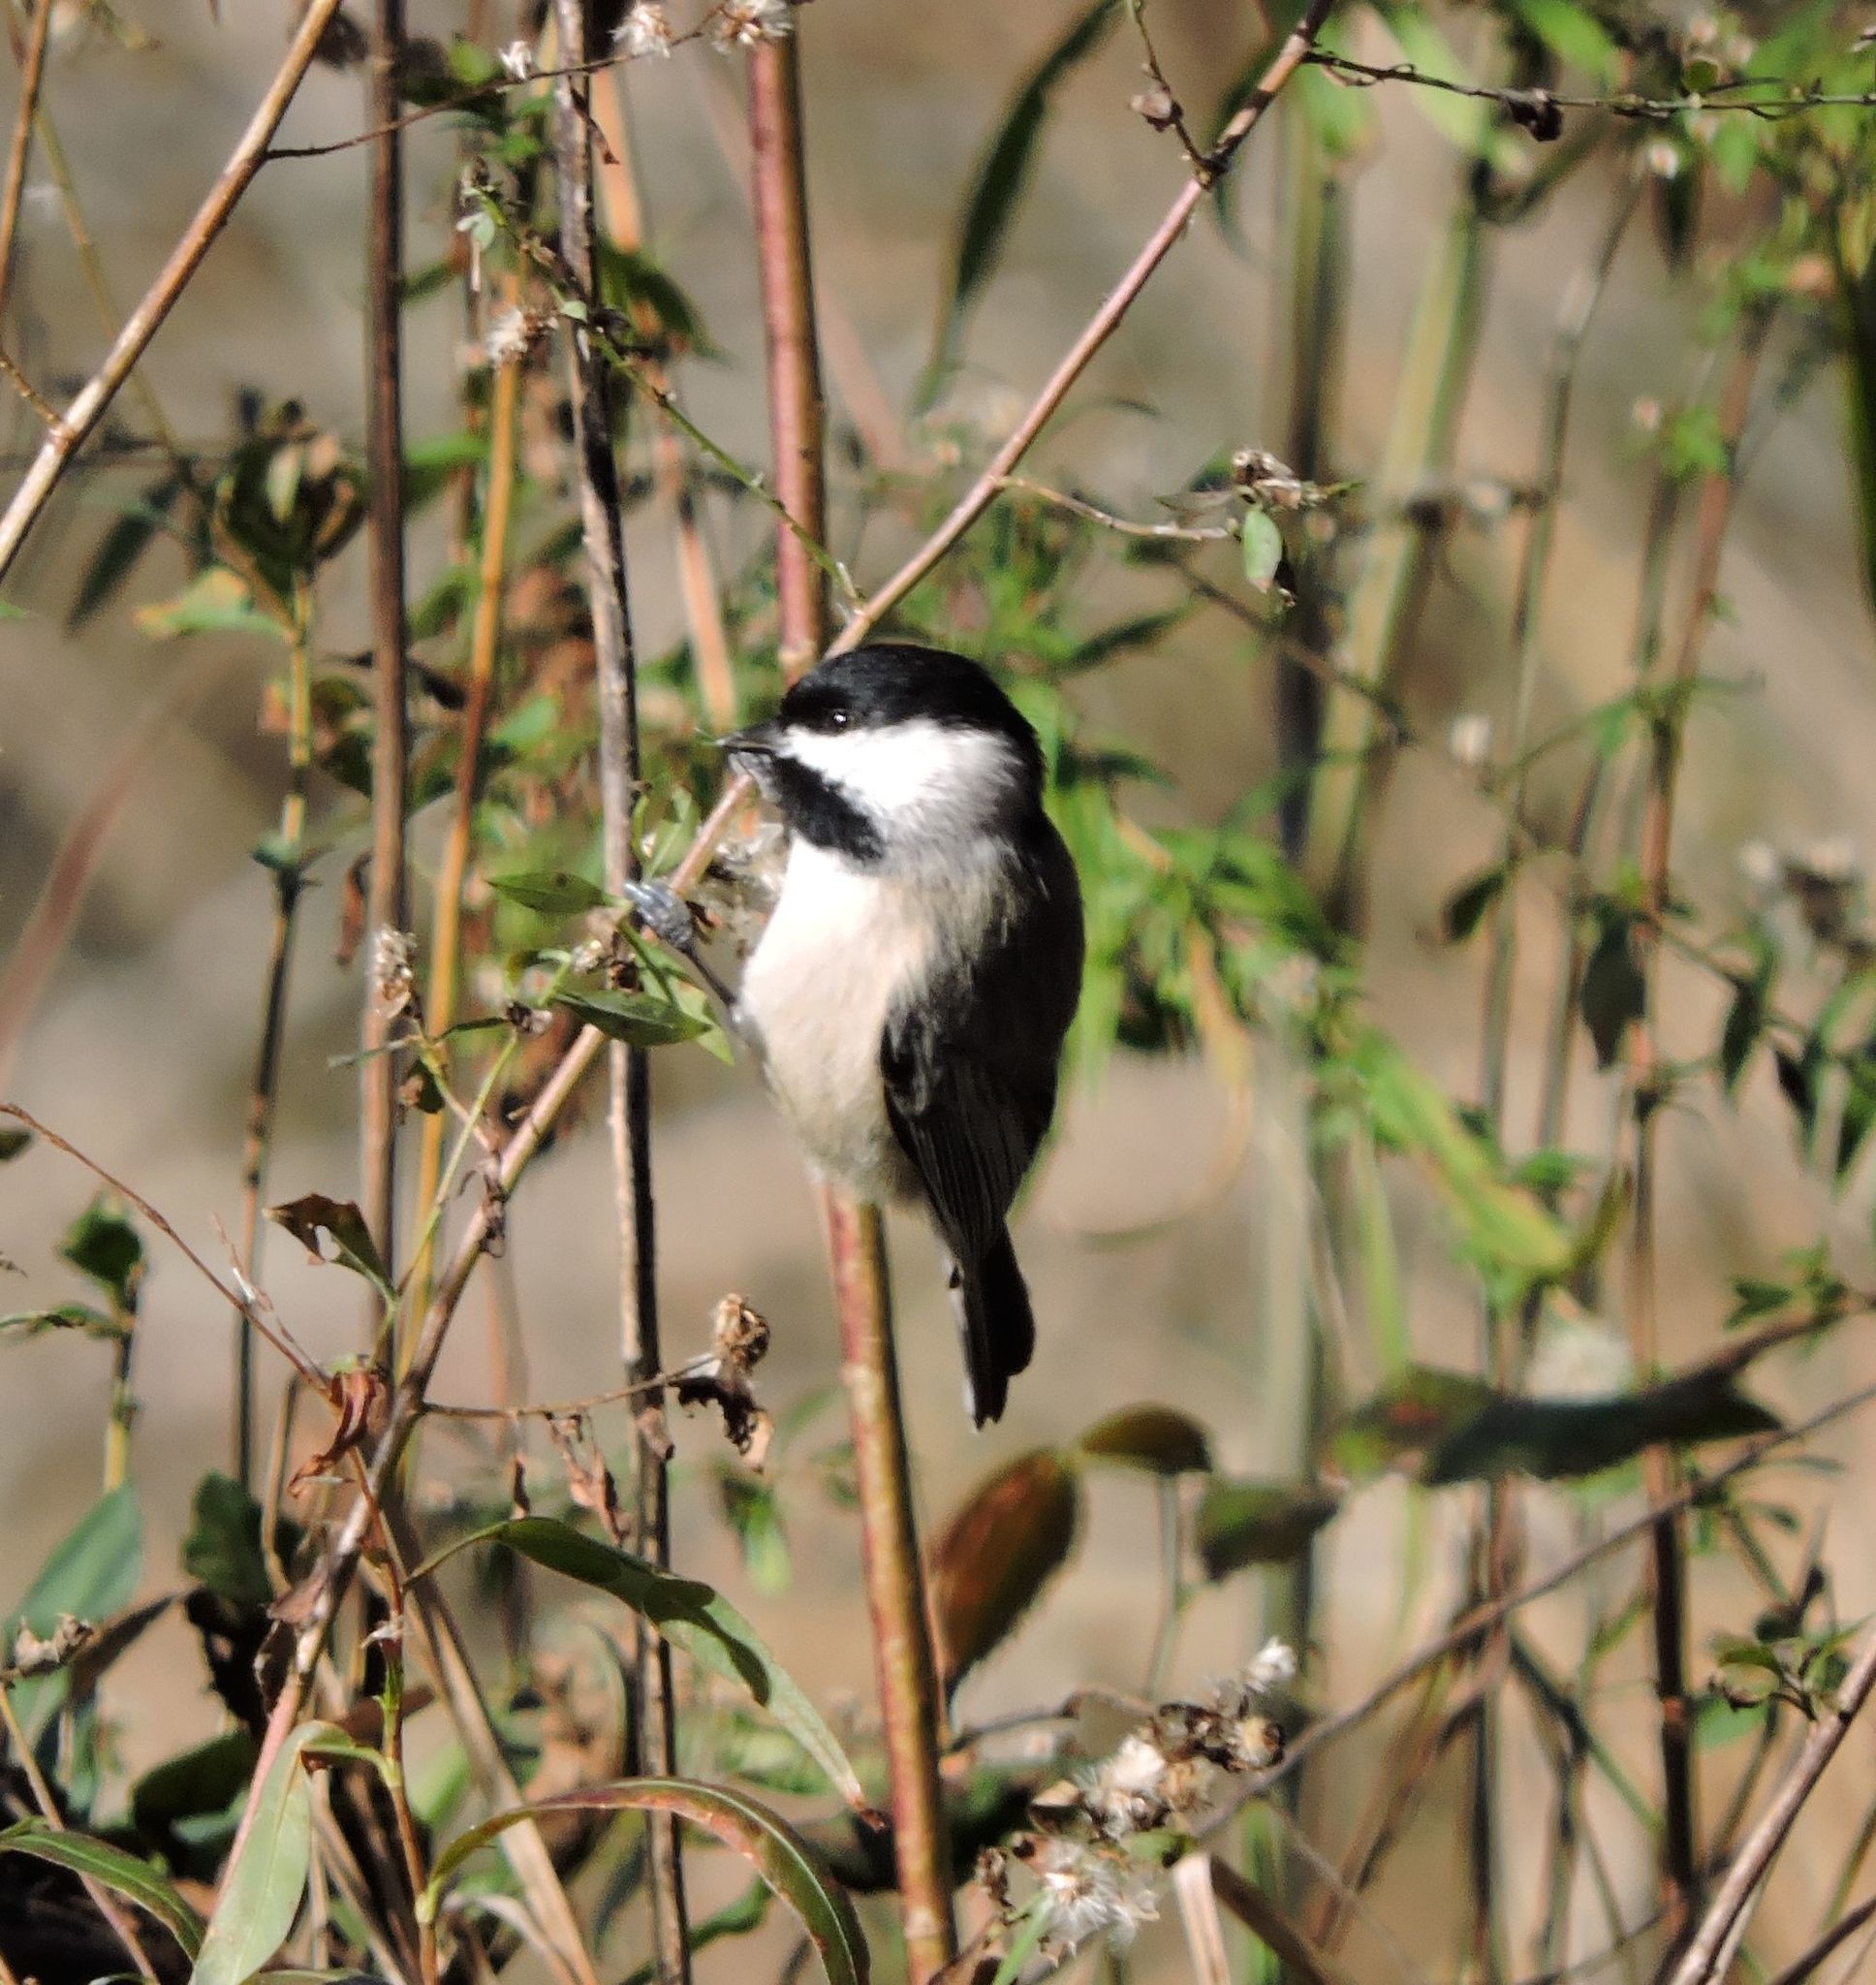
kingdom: Animalia
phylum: Chordata
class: Aves
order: Passeriformes
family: Paridae
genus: Poecile
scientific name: Poecile carolinensis
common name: Carolina chickadee
